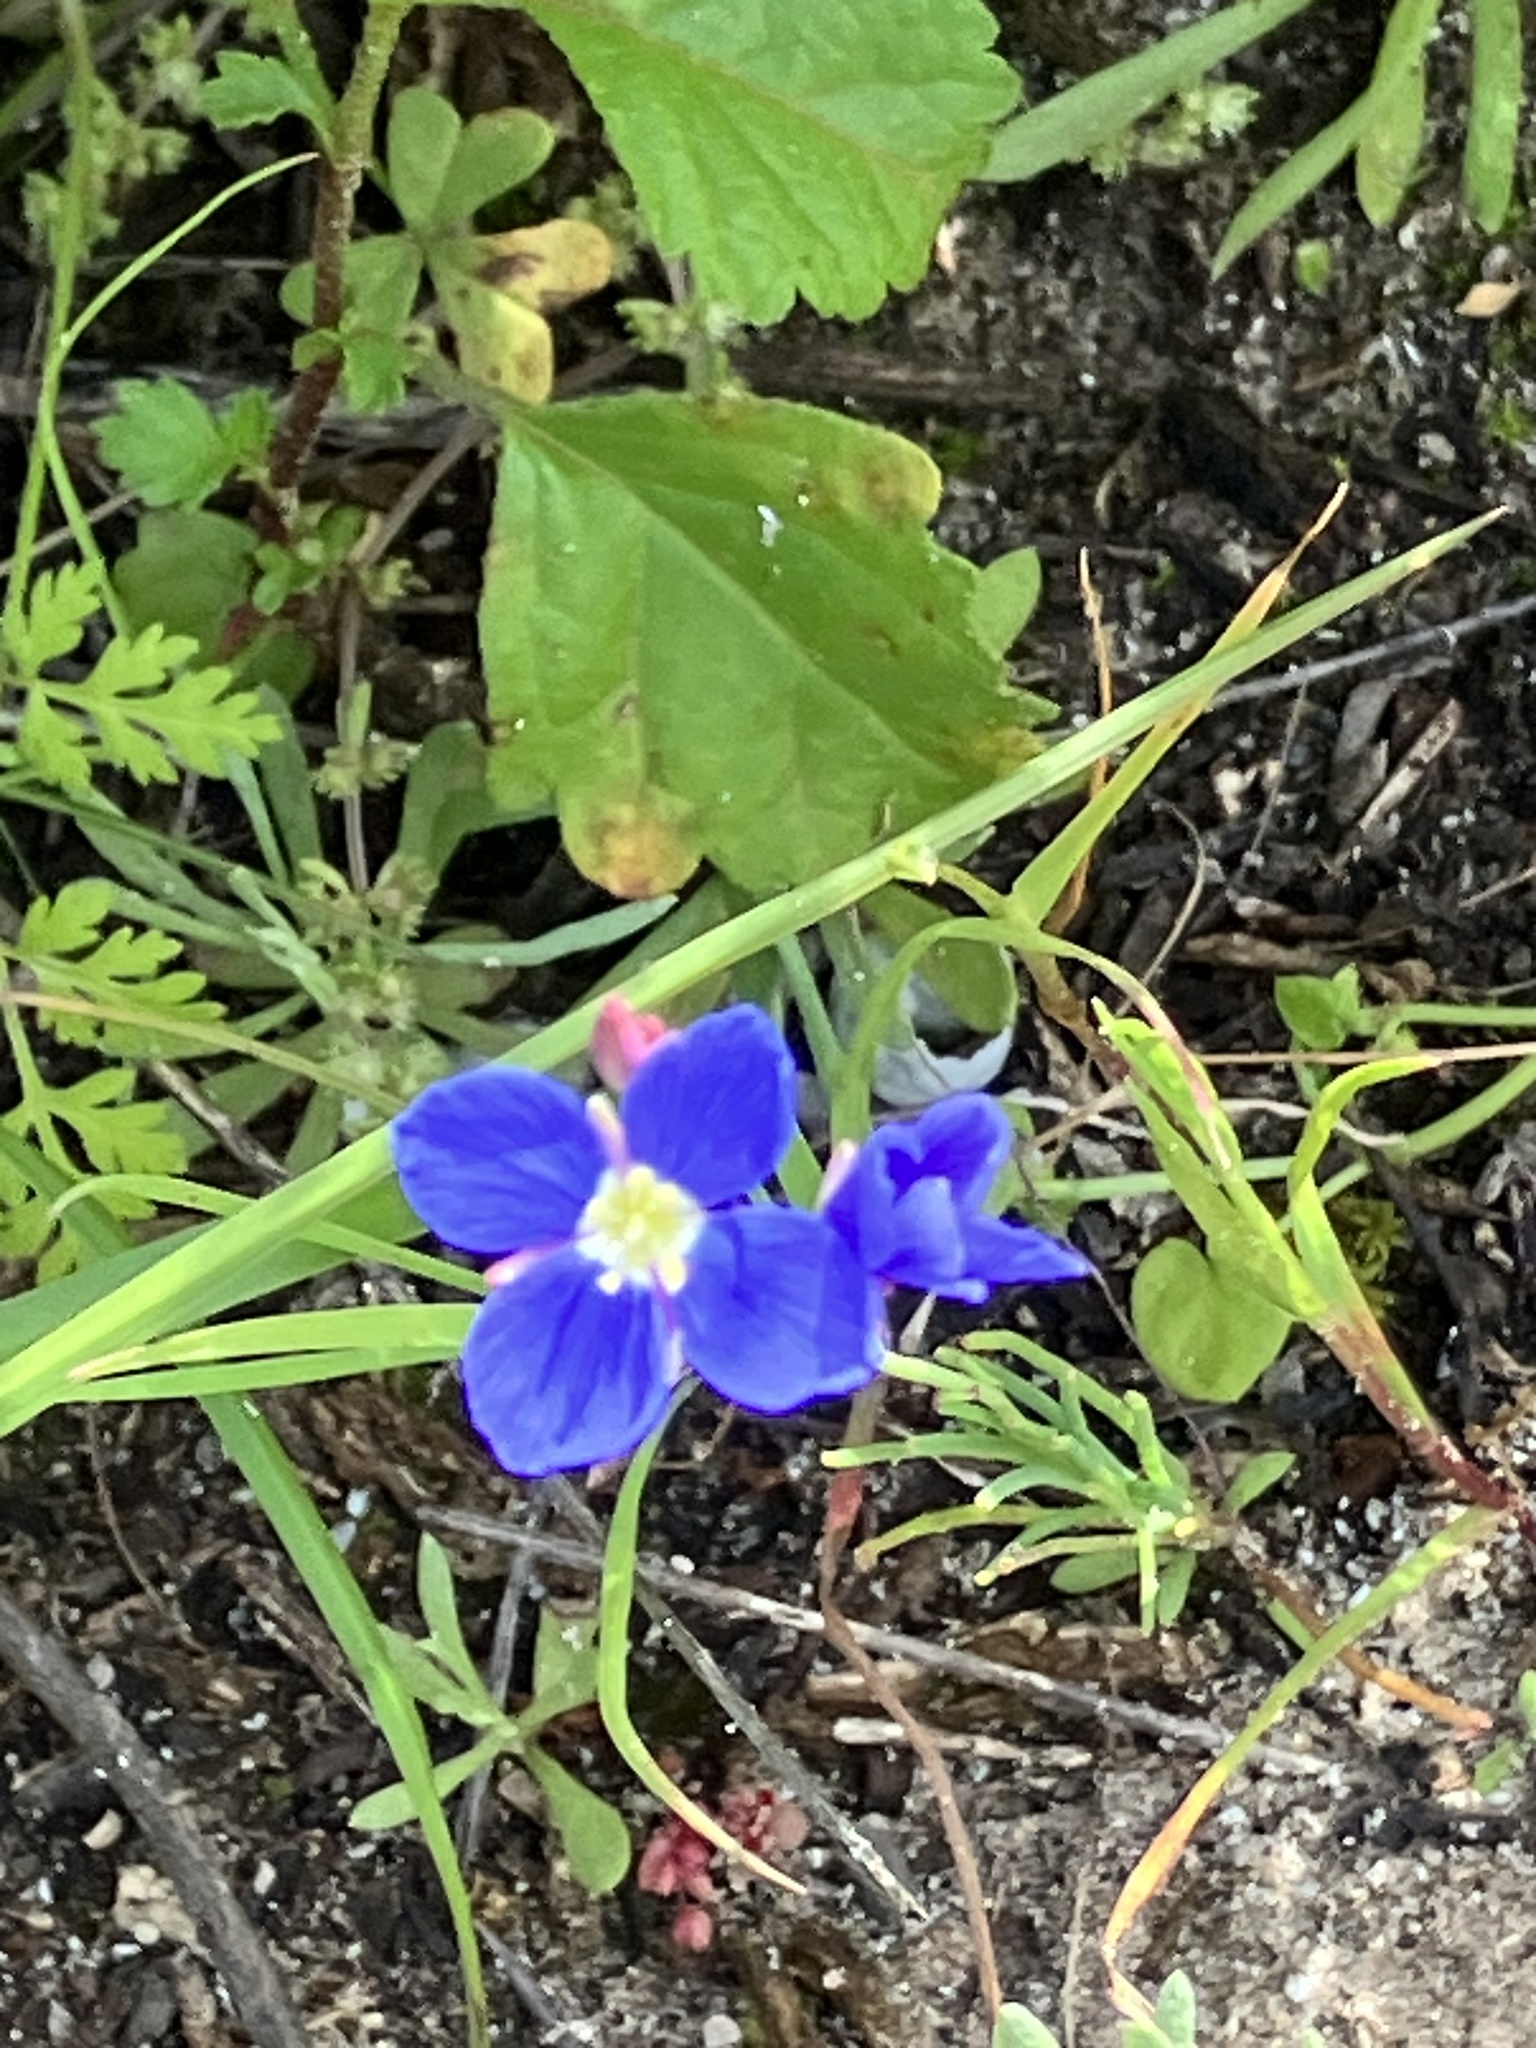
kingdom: Plantae
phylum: Tracheophyta
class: Magnoliopsida
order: Brassicales
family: Brassicaceae
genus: Heliophila
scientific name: Heliophila adpressa
